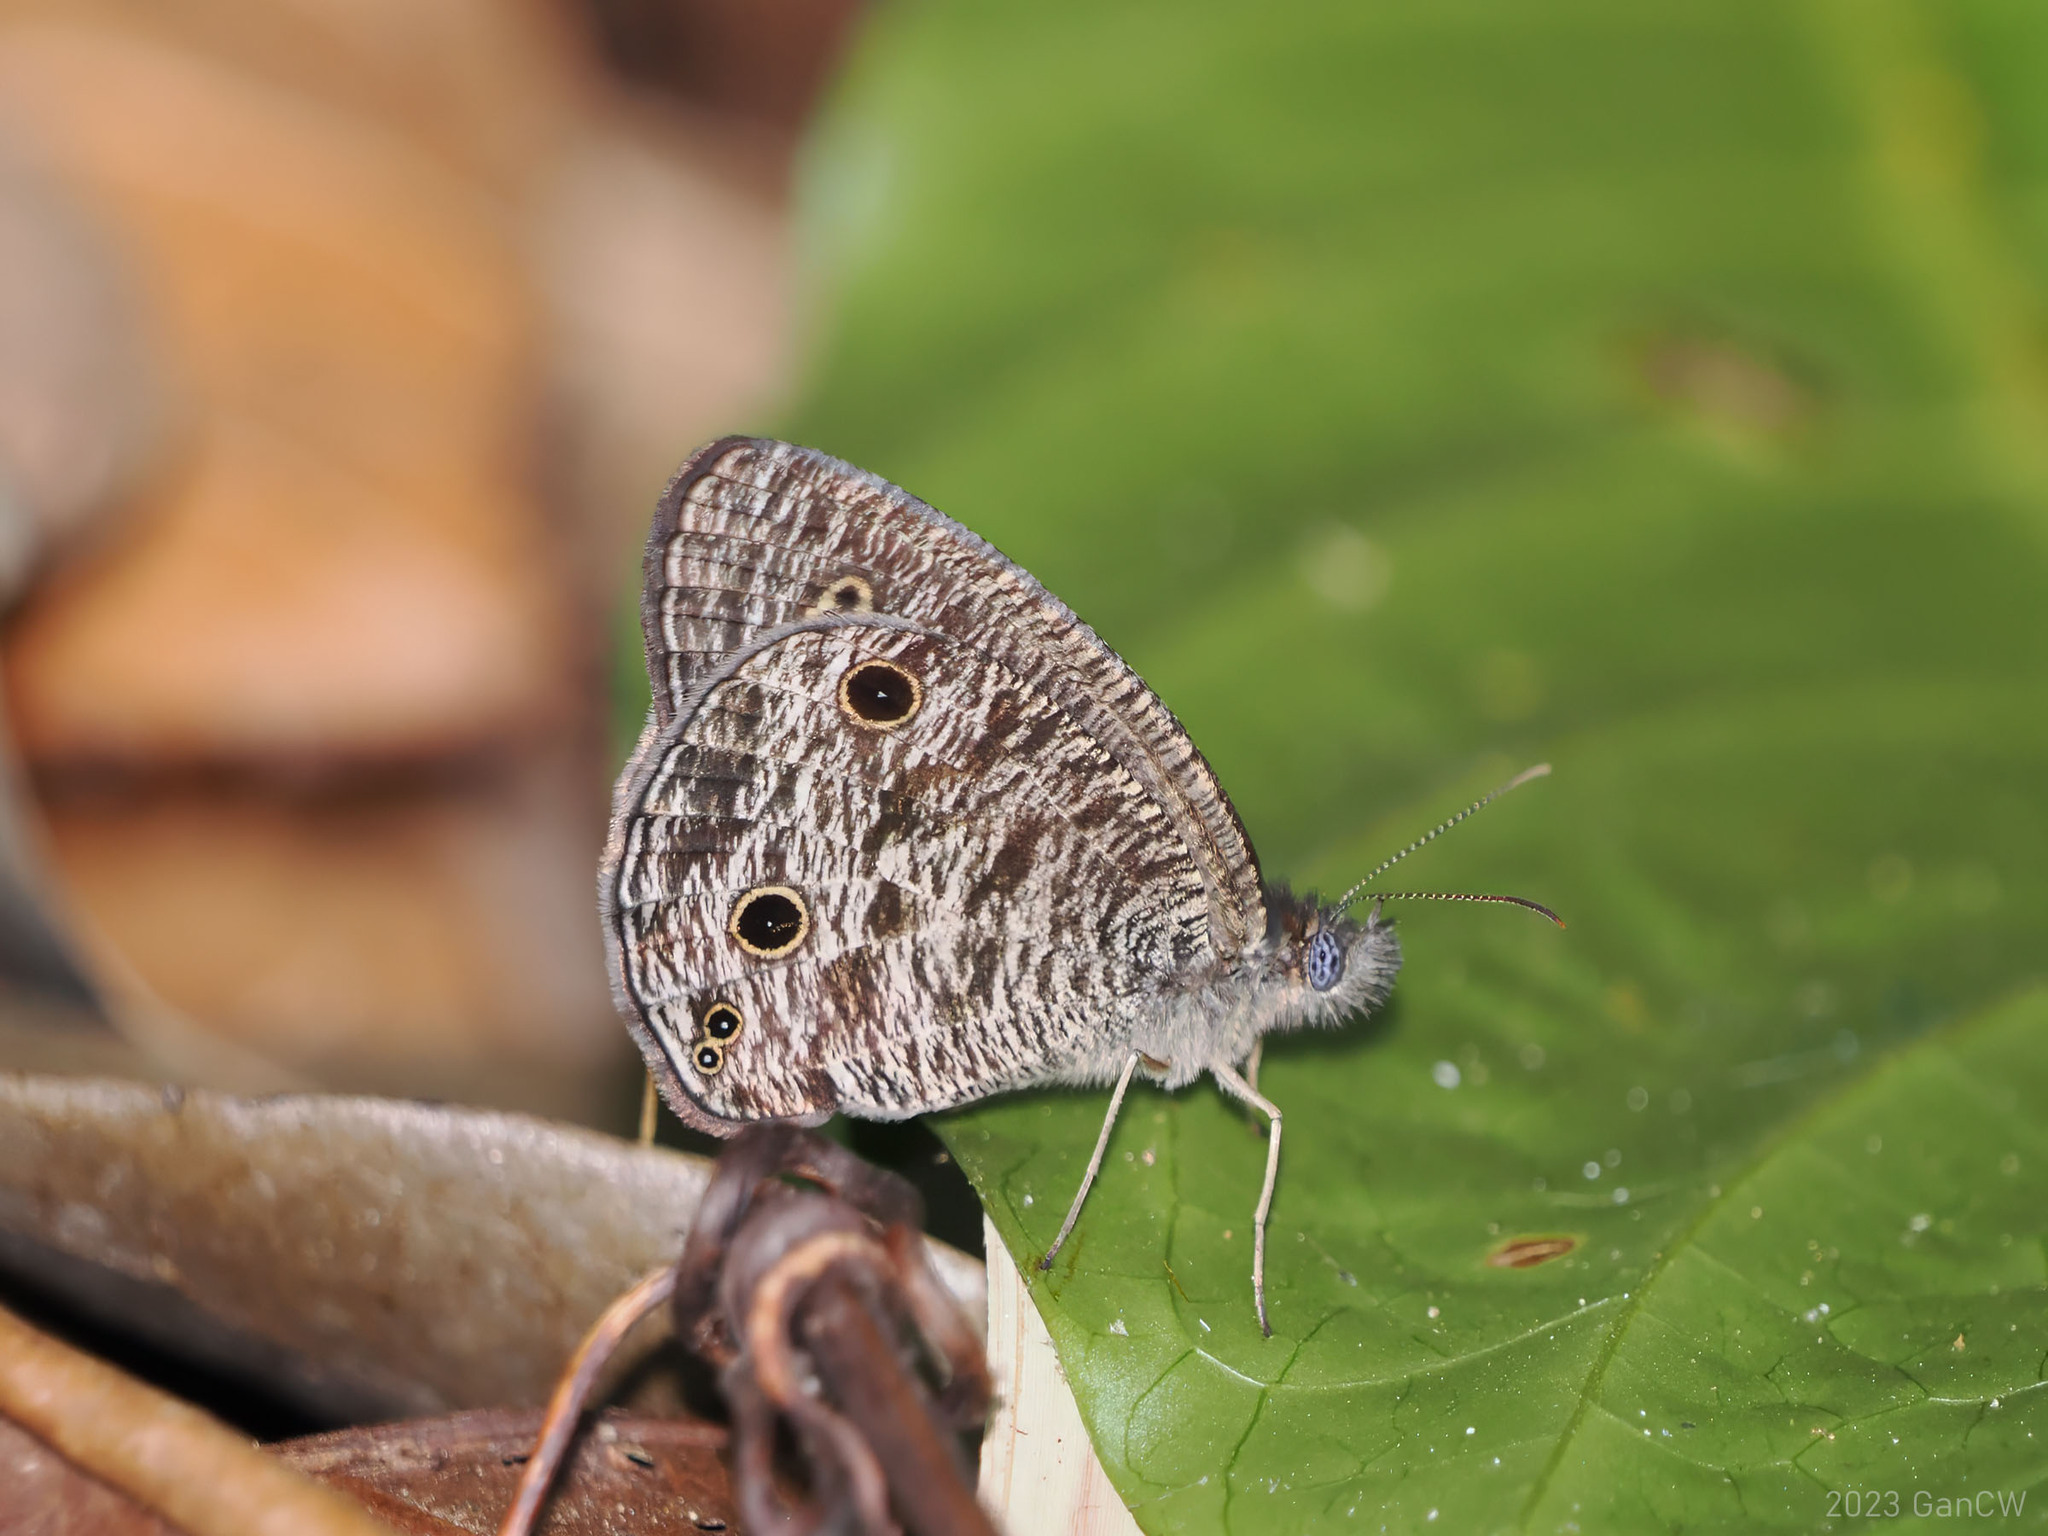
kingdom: Animalia
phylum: Arthropoda
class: Insecta
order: Lepidoptera
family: Nymphalidae
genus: Ypthima
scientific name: Ypthima pandocus
